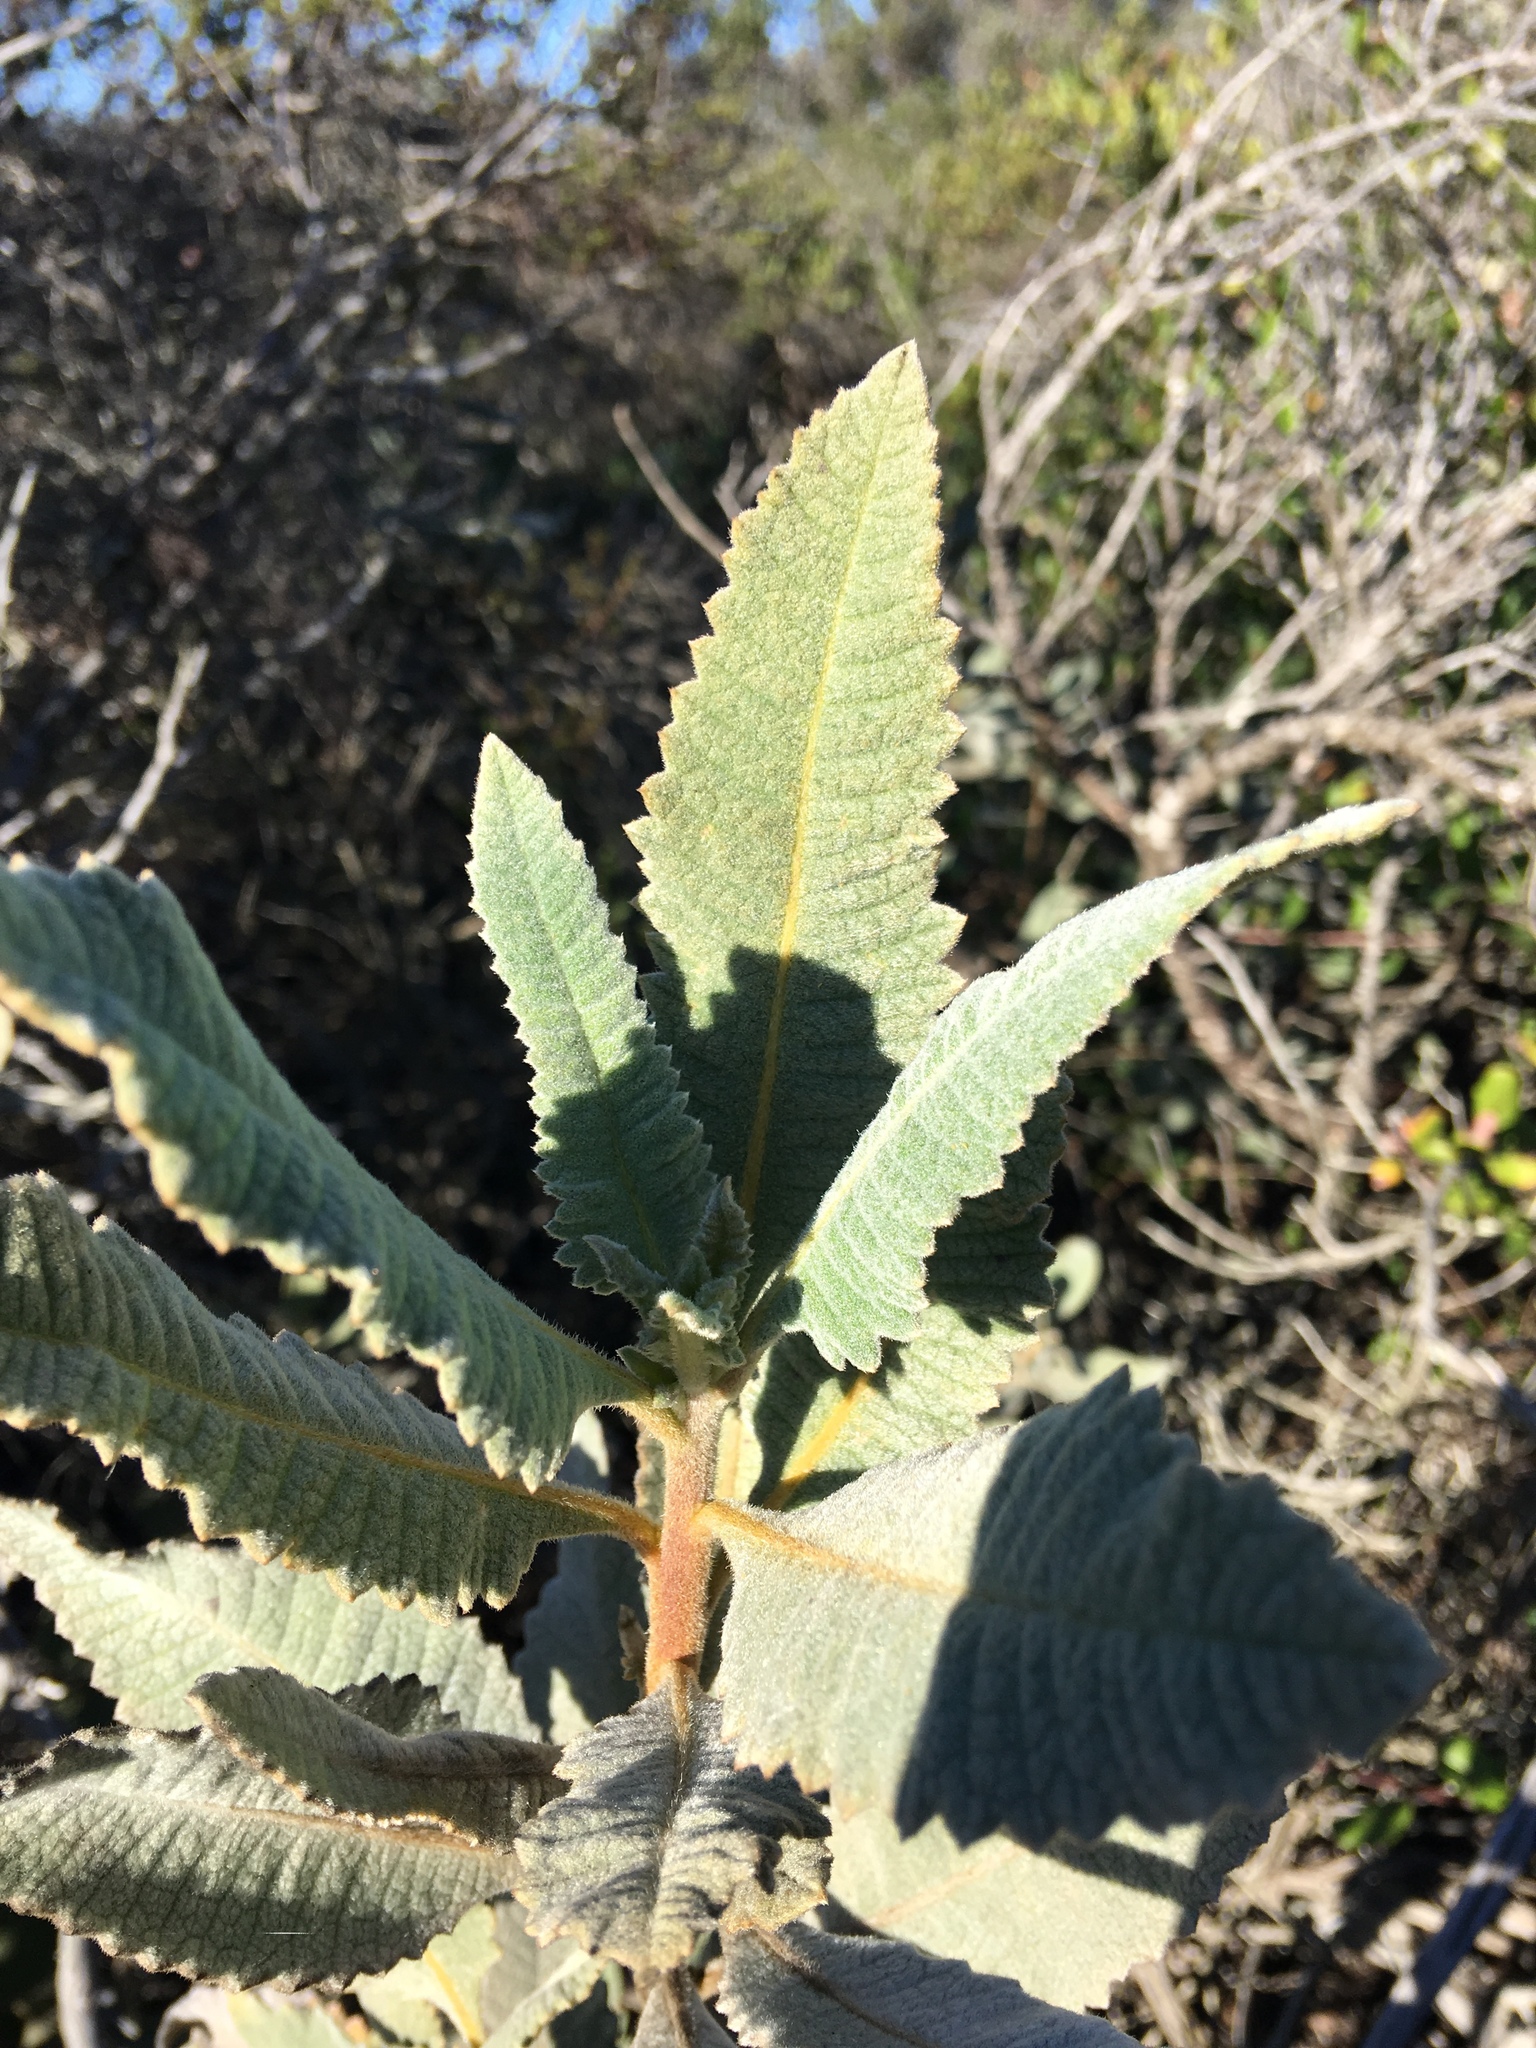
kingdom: Plantae
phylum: Tracheophyta
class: Magnoliopsida
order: Boraginales
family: Namaceae
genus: Eriodictyon
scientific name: Eriodictyon crassifolium
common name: Thick-leaf yerba-santa
